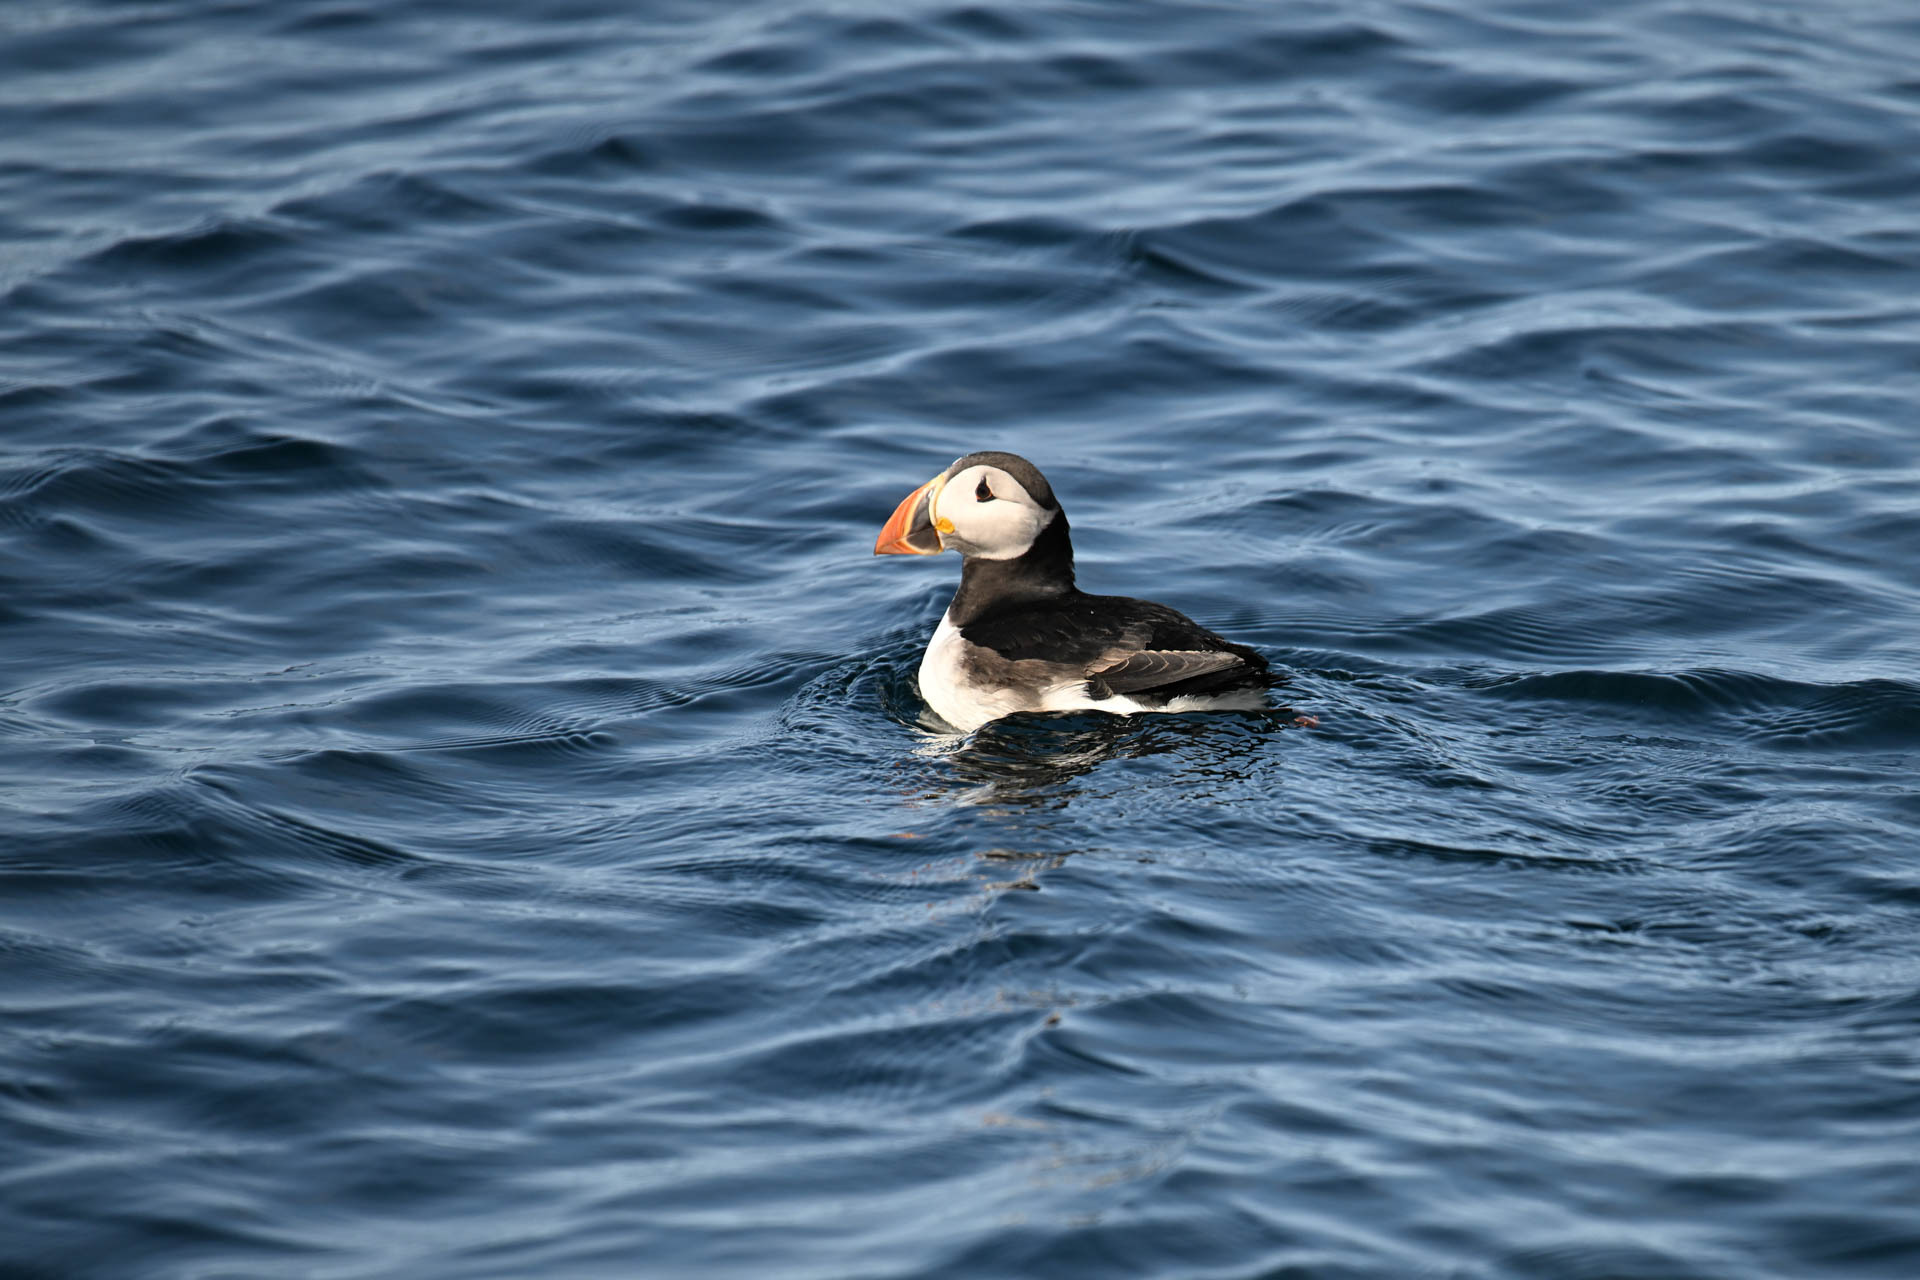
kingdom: Animalia
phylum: Chordata
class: Aves
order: Charadriiformes
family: Alcidae
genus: Fratercula
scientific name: Fratercula arctica
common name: Atlantic puffin
